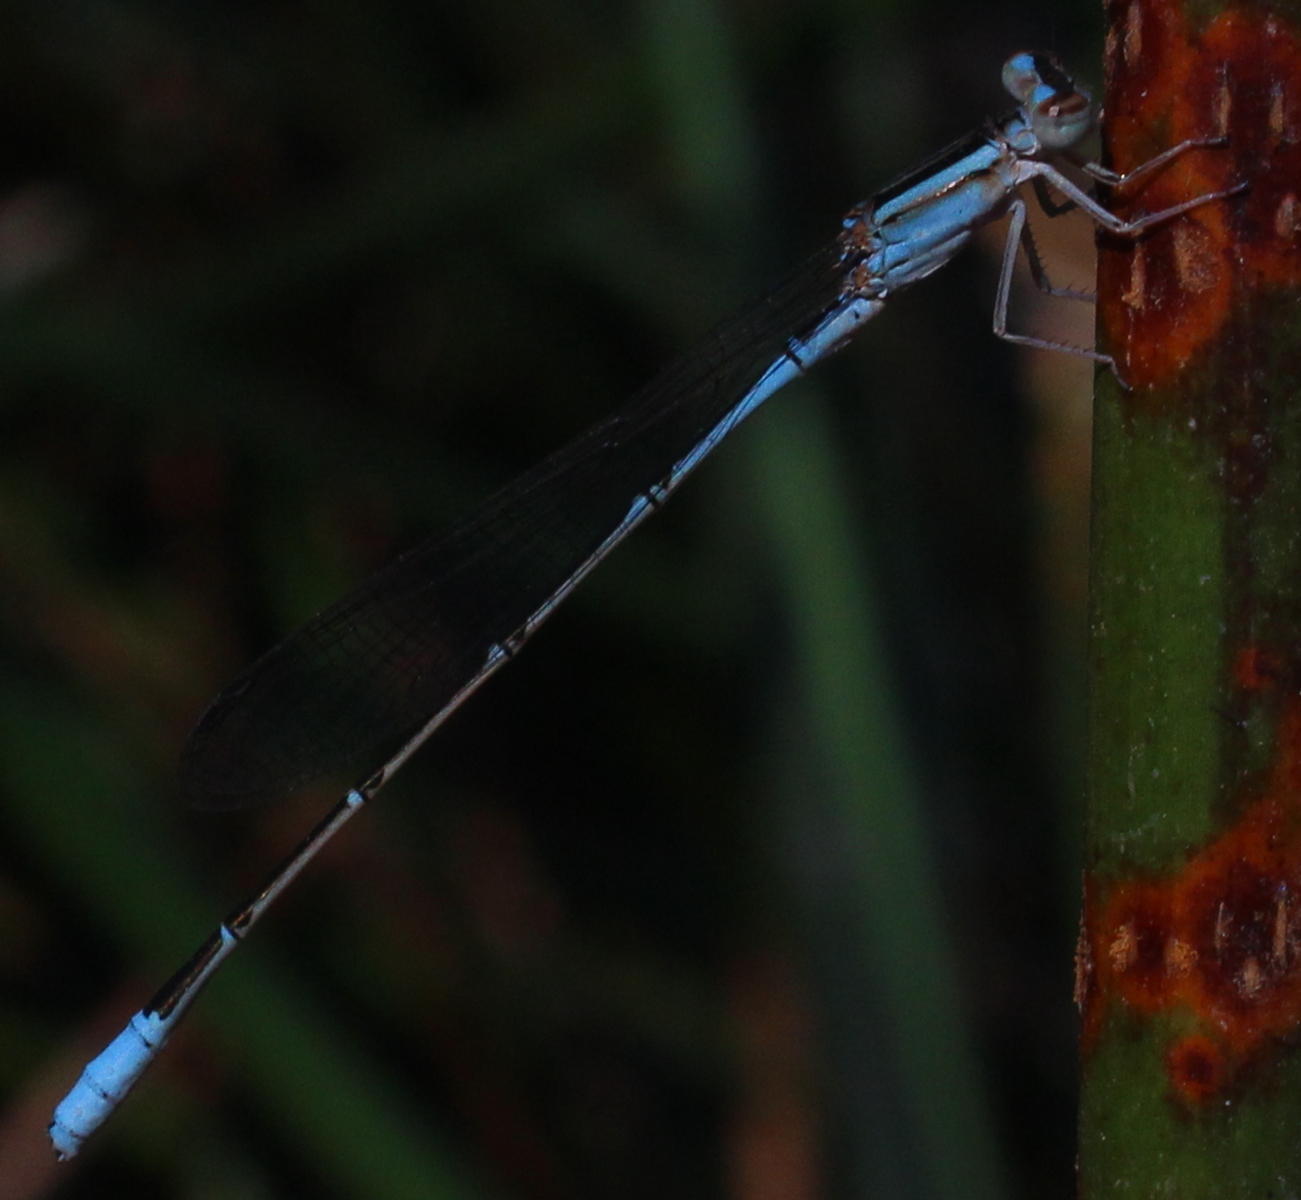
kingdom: Animalia
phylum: Arthropoda
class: Insecta
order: Odonata
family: Coenagrionidae
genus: Africallagma
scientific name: Africallagma fractum
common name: Slender bluet
